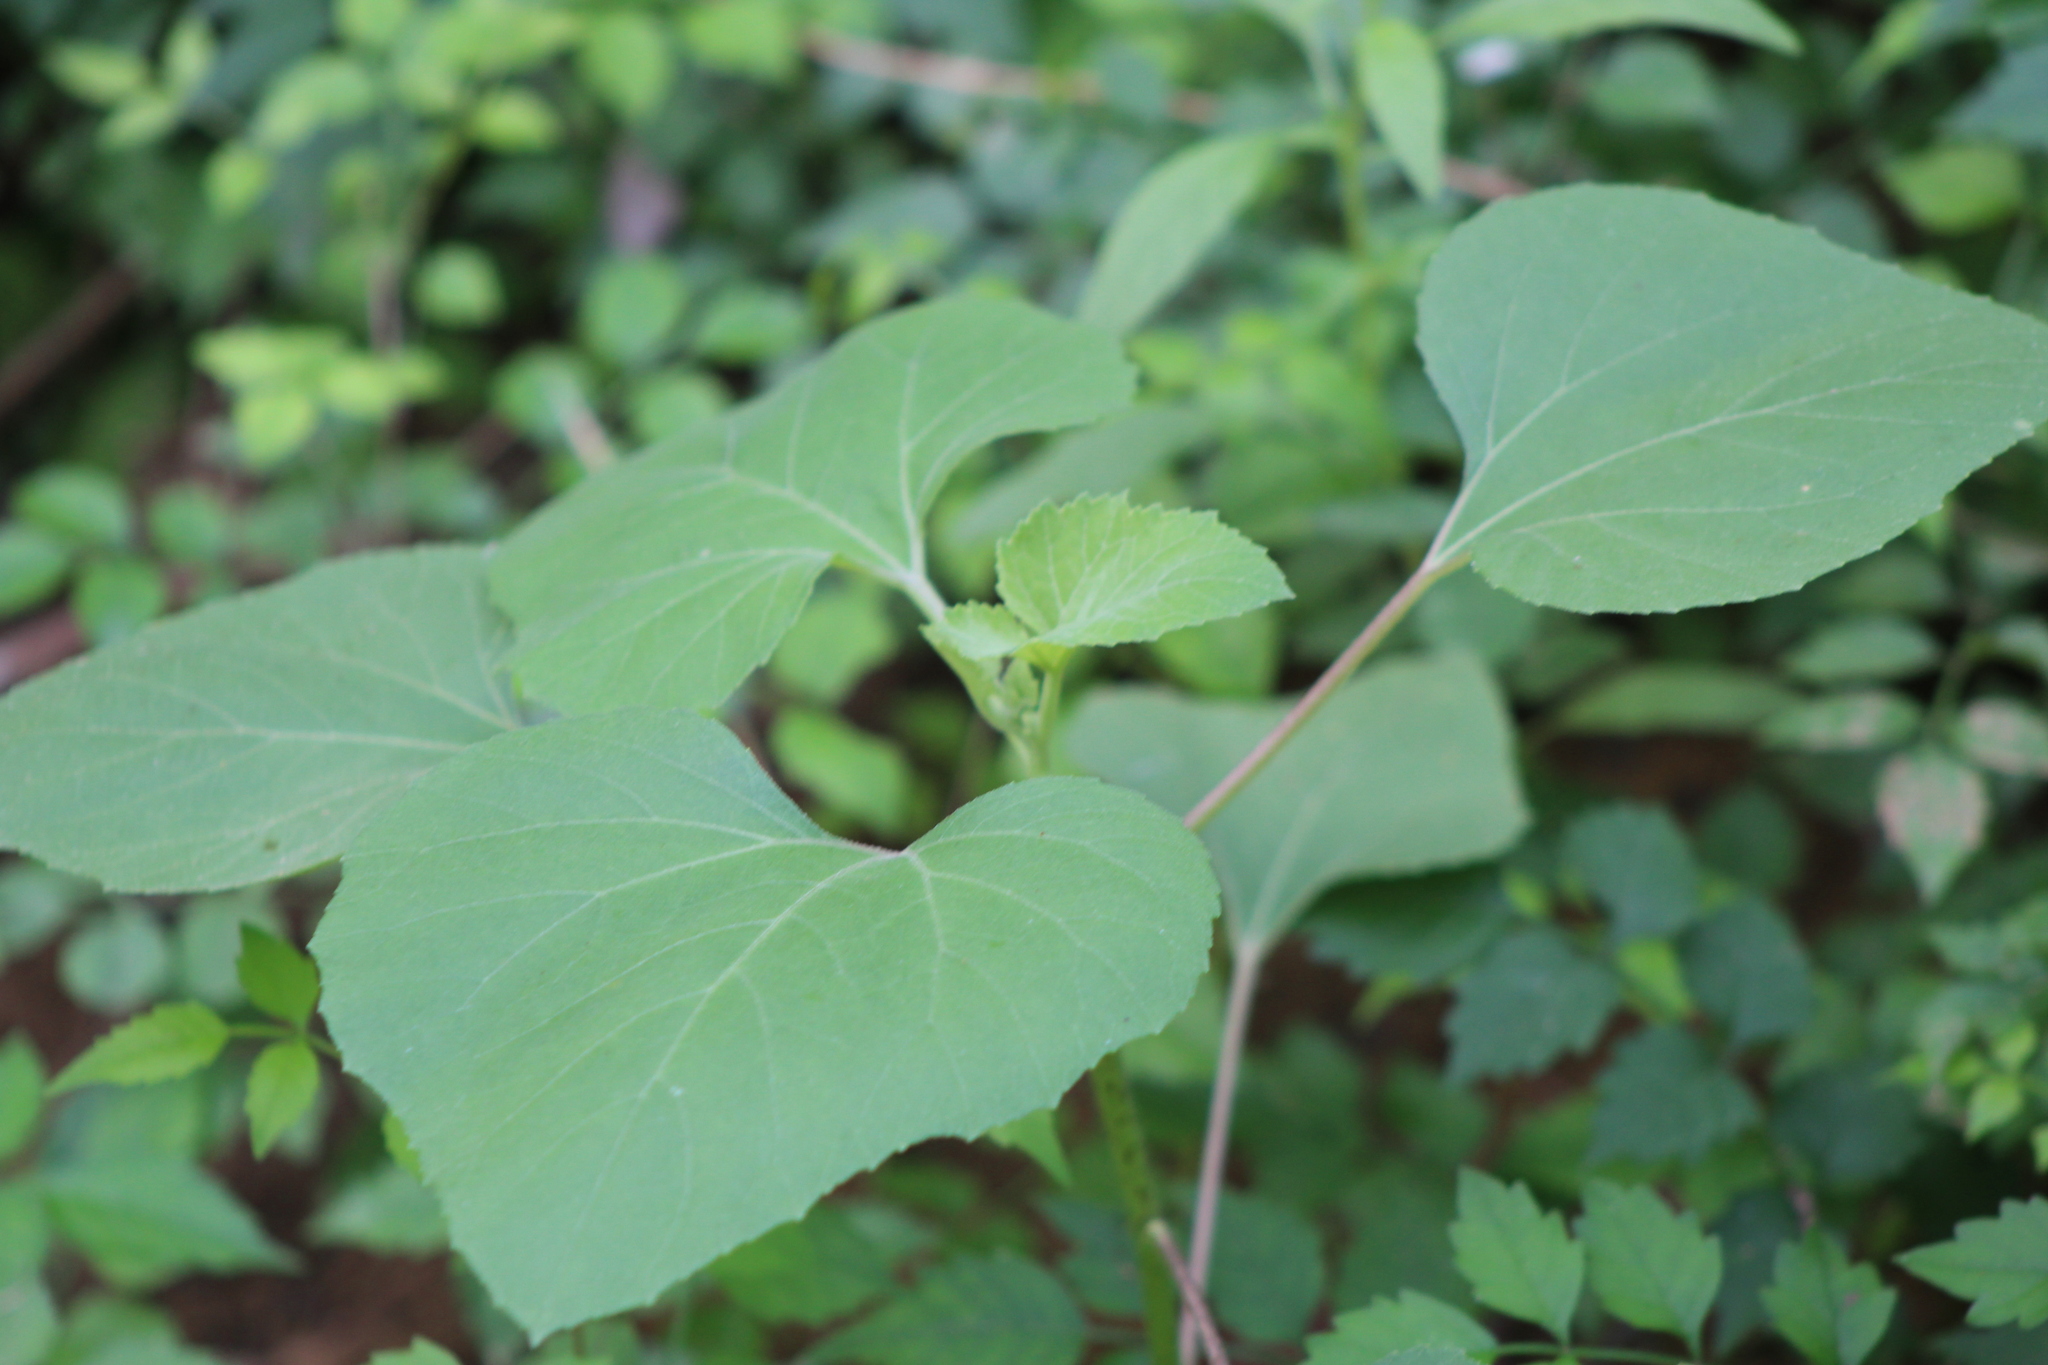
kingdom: Plantae
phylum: Tracheophyta
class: Magnoliopsida
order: Asterales
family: Asteraceae
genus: Xanthium
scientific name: Xanthium strumarium
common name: Rough cocklebur
